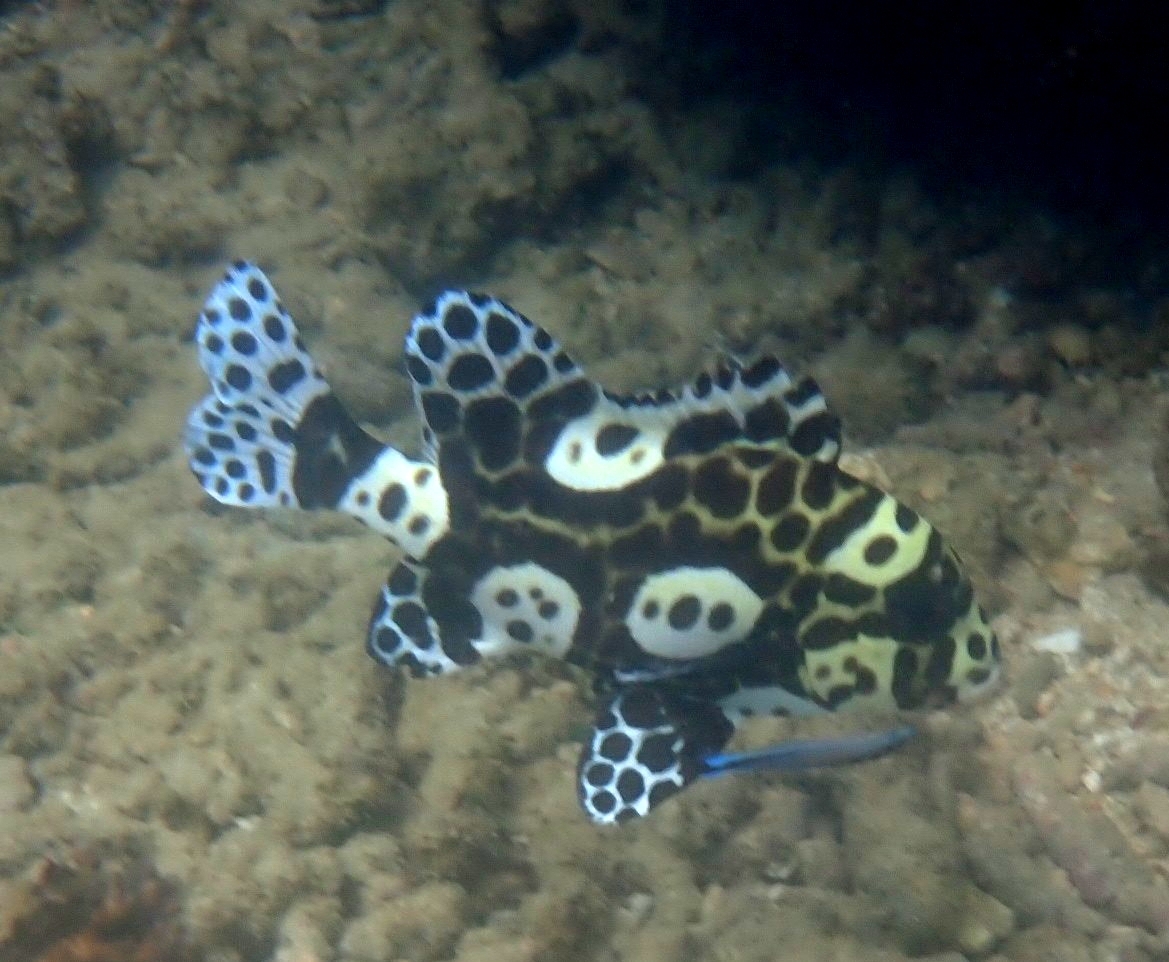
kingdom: Animalia
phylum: Chordata
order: Perciformes
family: Haemulidae
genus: Plectorhinchus
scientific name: Plectorhinchus chaetodonoides
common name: Harlequin sweetlips
